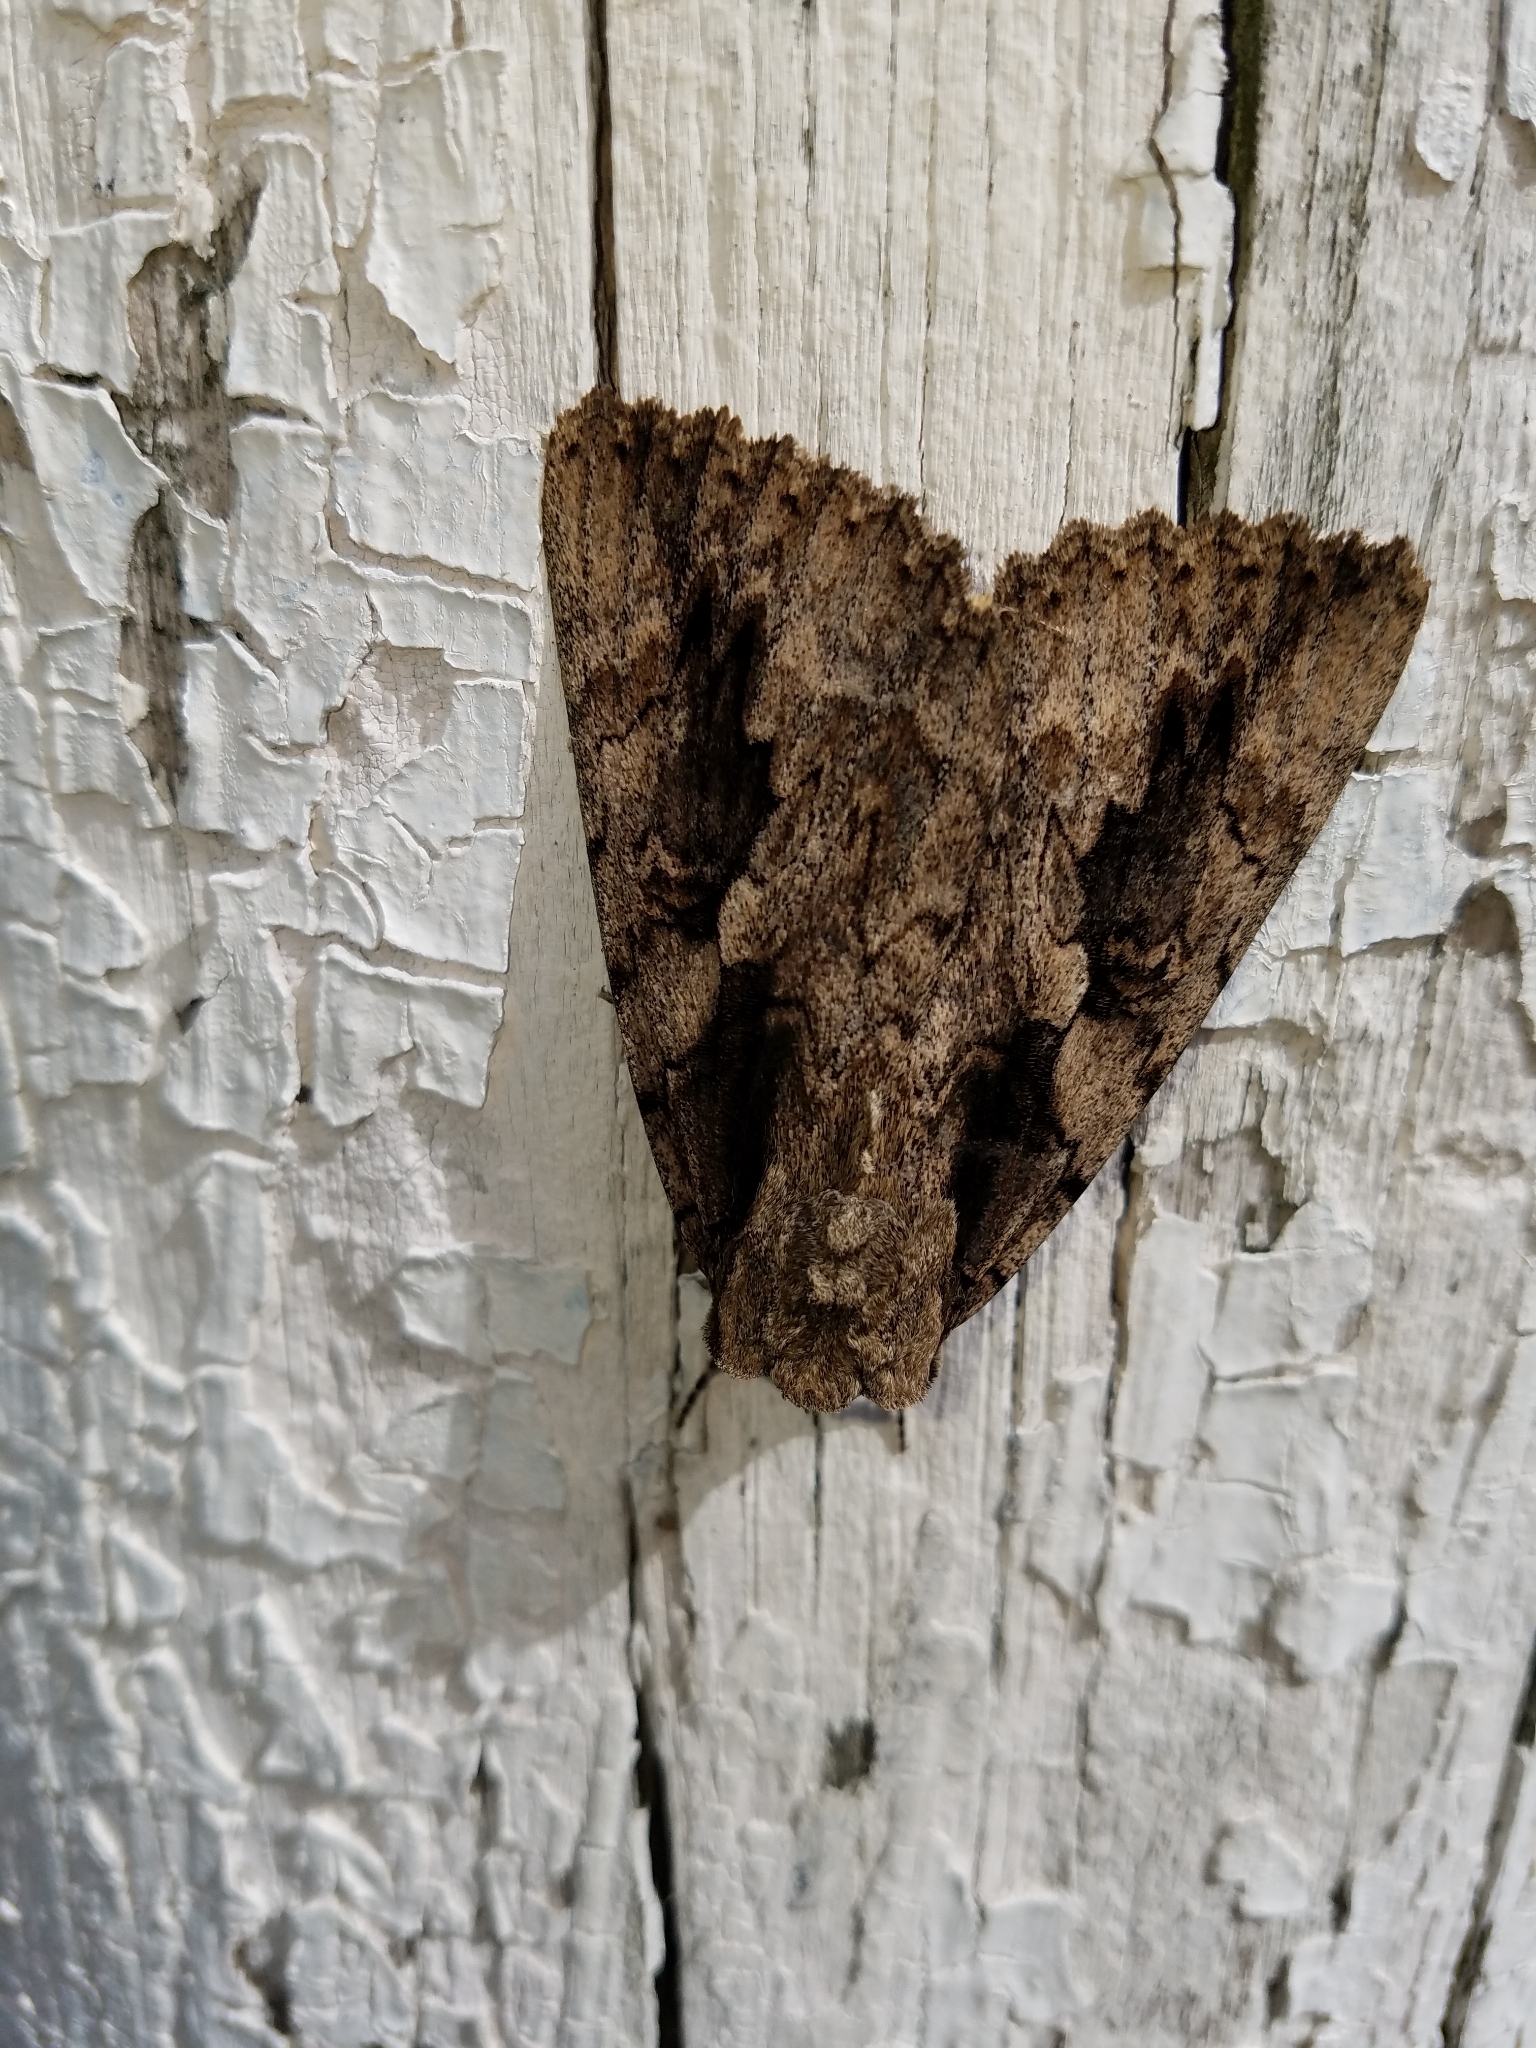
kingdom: Animalia
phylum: Arthropoda
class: Insecta
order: Lepidoptera
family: Erebidae
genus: Catocala
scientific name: Catocala amatrix
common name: Sweetheart underwing
